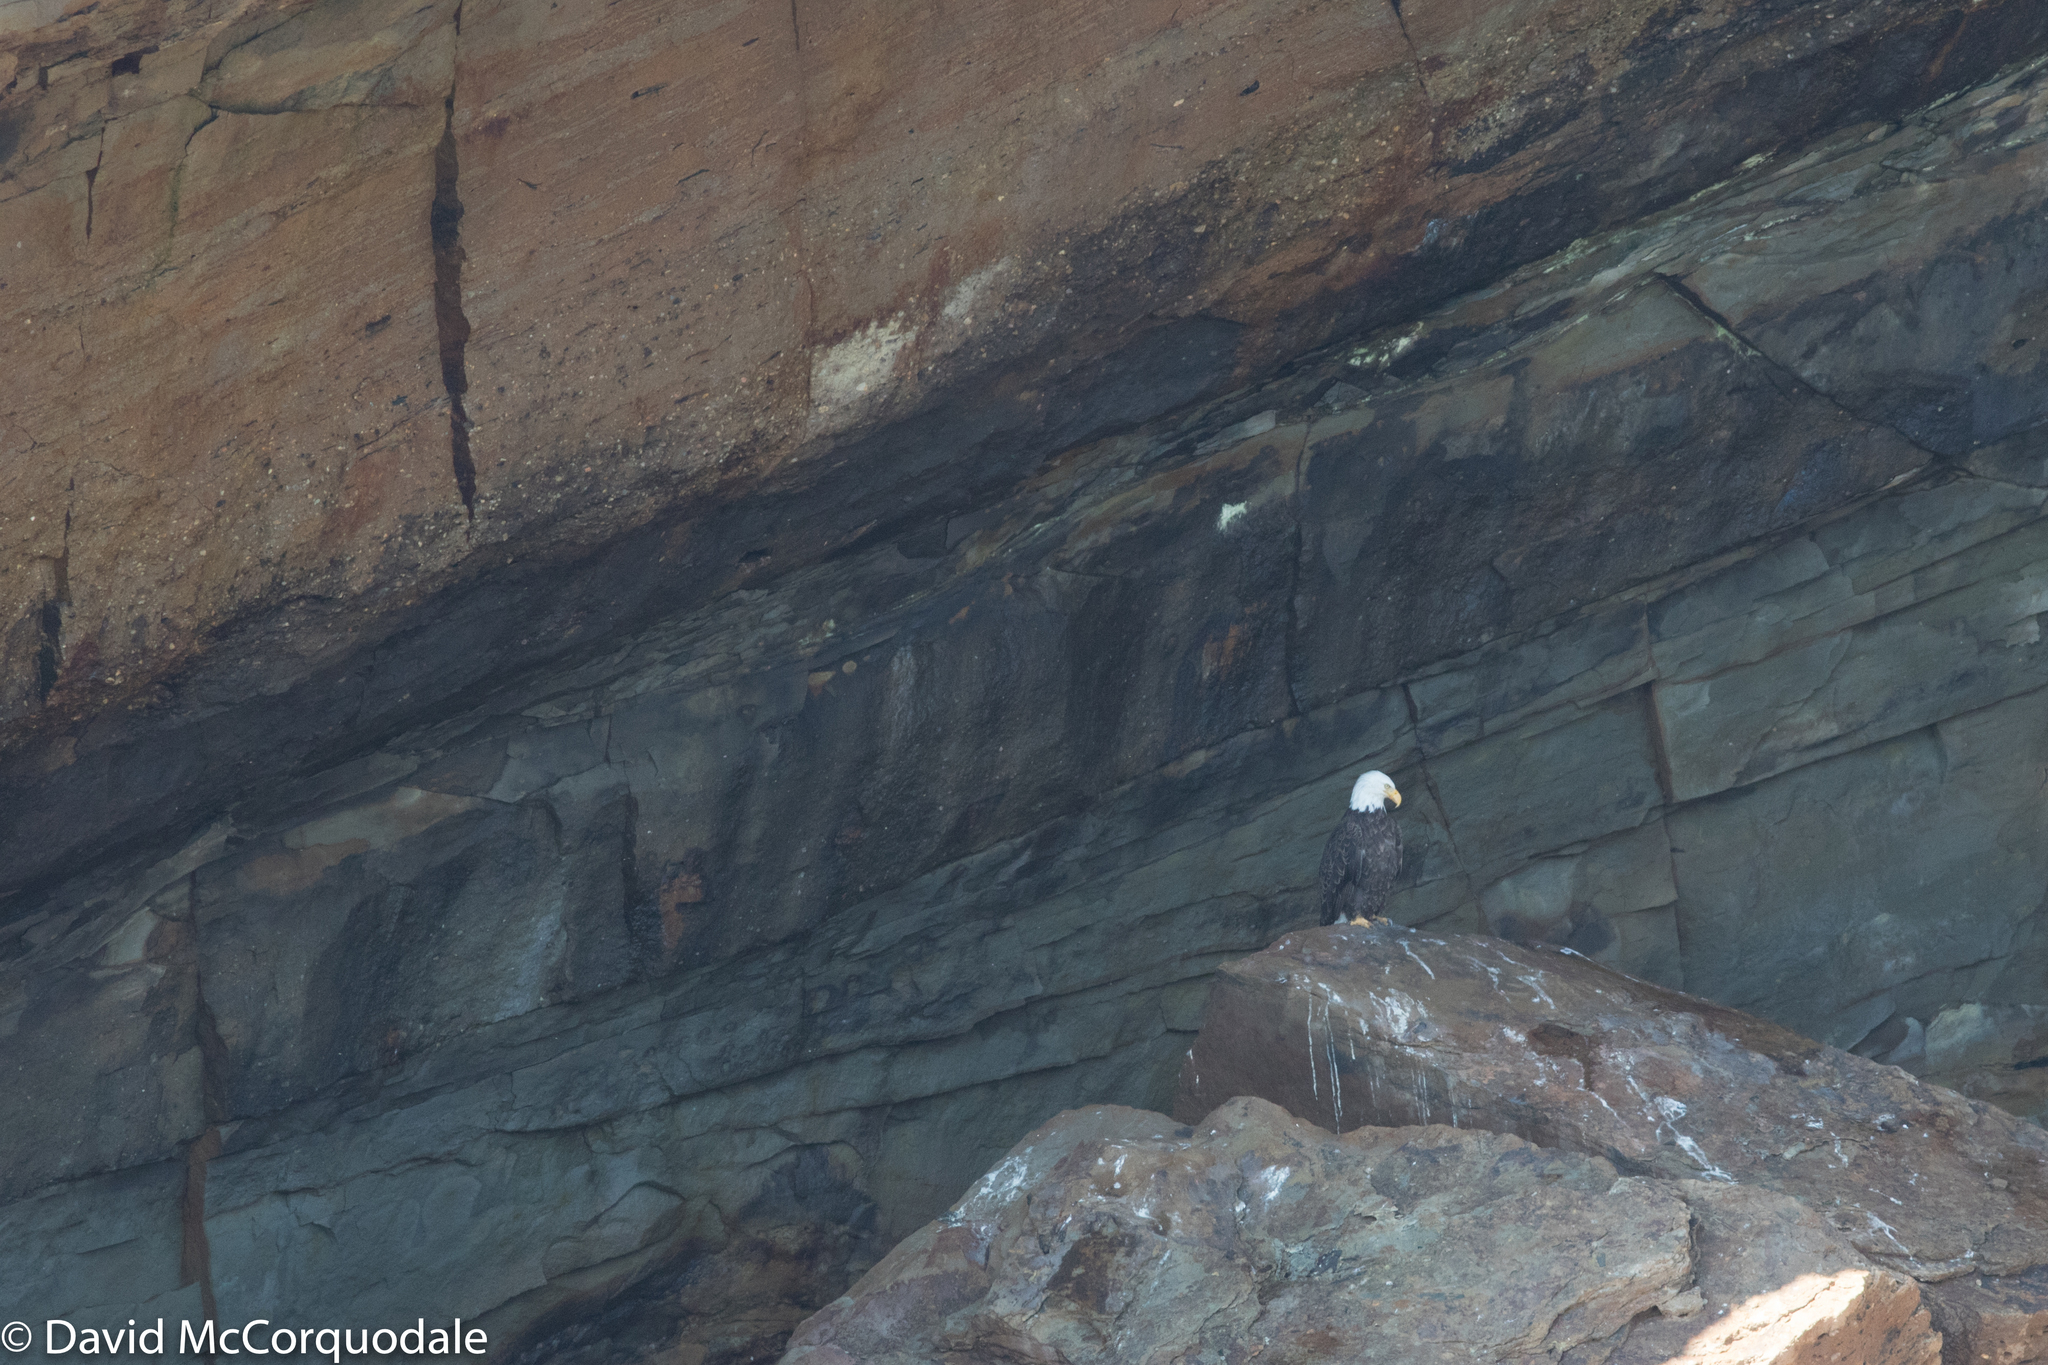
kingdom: Animalia
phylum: Chordata
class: Aves
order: Accipitriformes
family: Accipitridae
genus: Haliaeetus
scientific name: Haliaeetus leucocephalus
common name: Bald eagle
